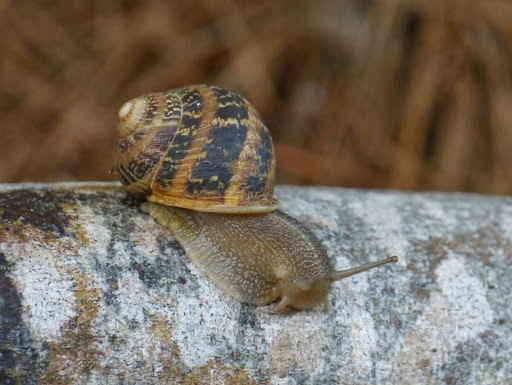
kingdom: Animalia
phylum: Mollusca
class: Gastropoda
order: Stylommatophora
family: Helicidae
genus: Cornu
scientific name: Cornu aspersum
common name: Brown garden snail
